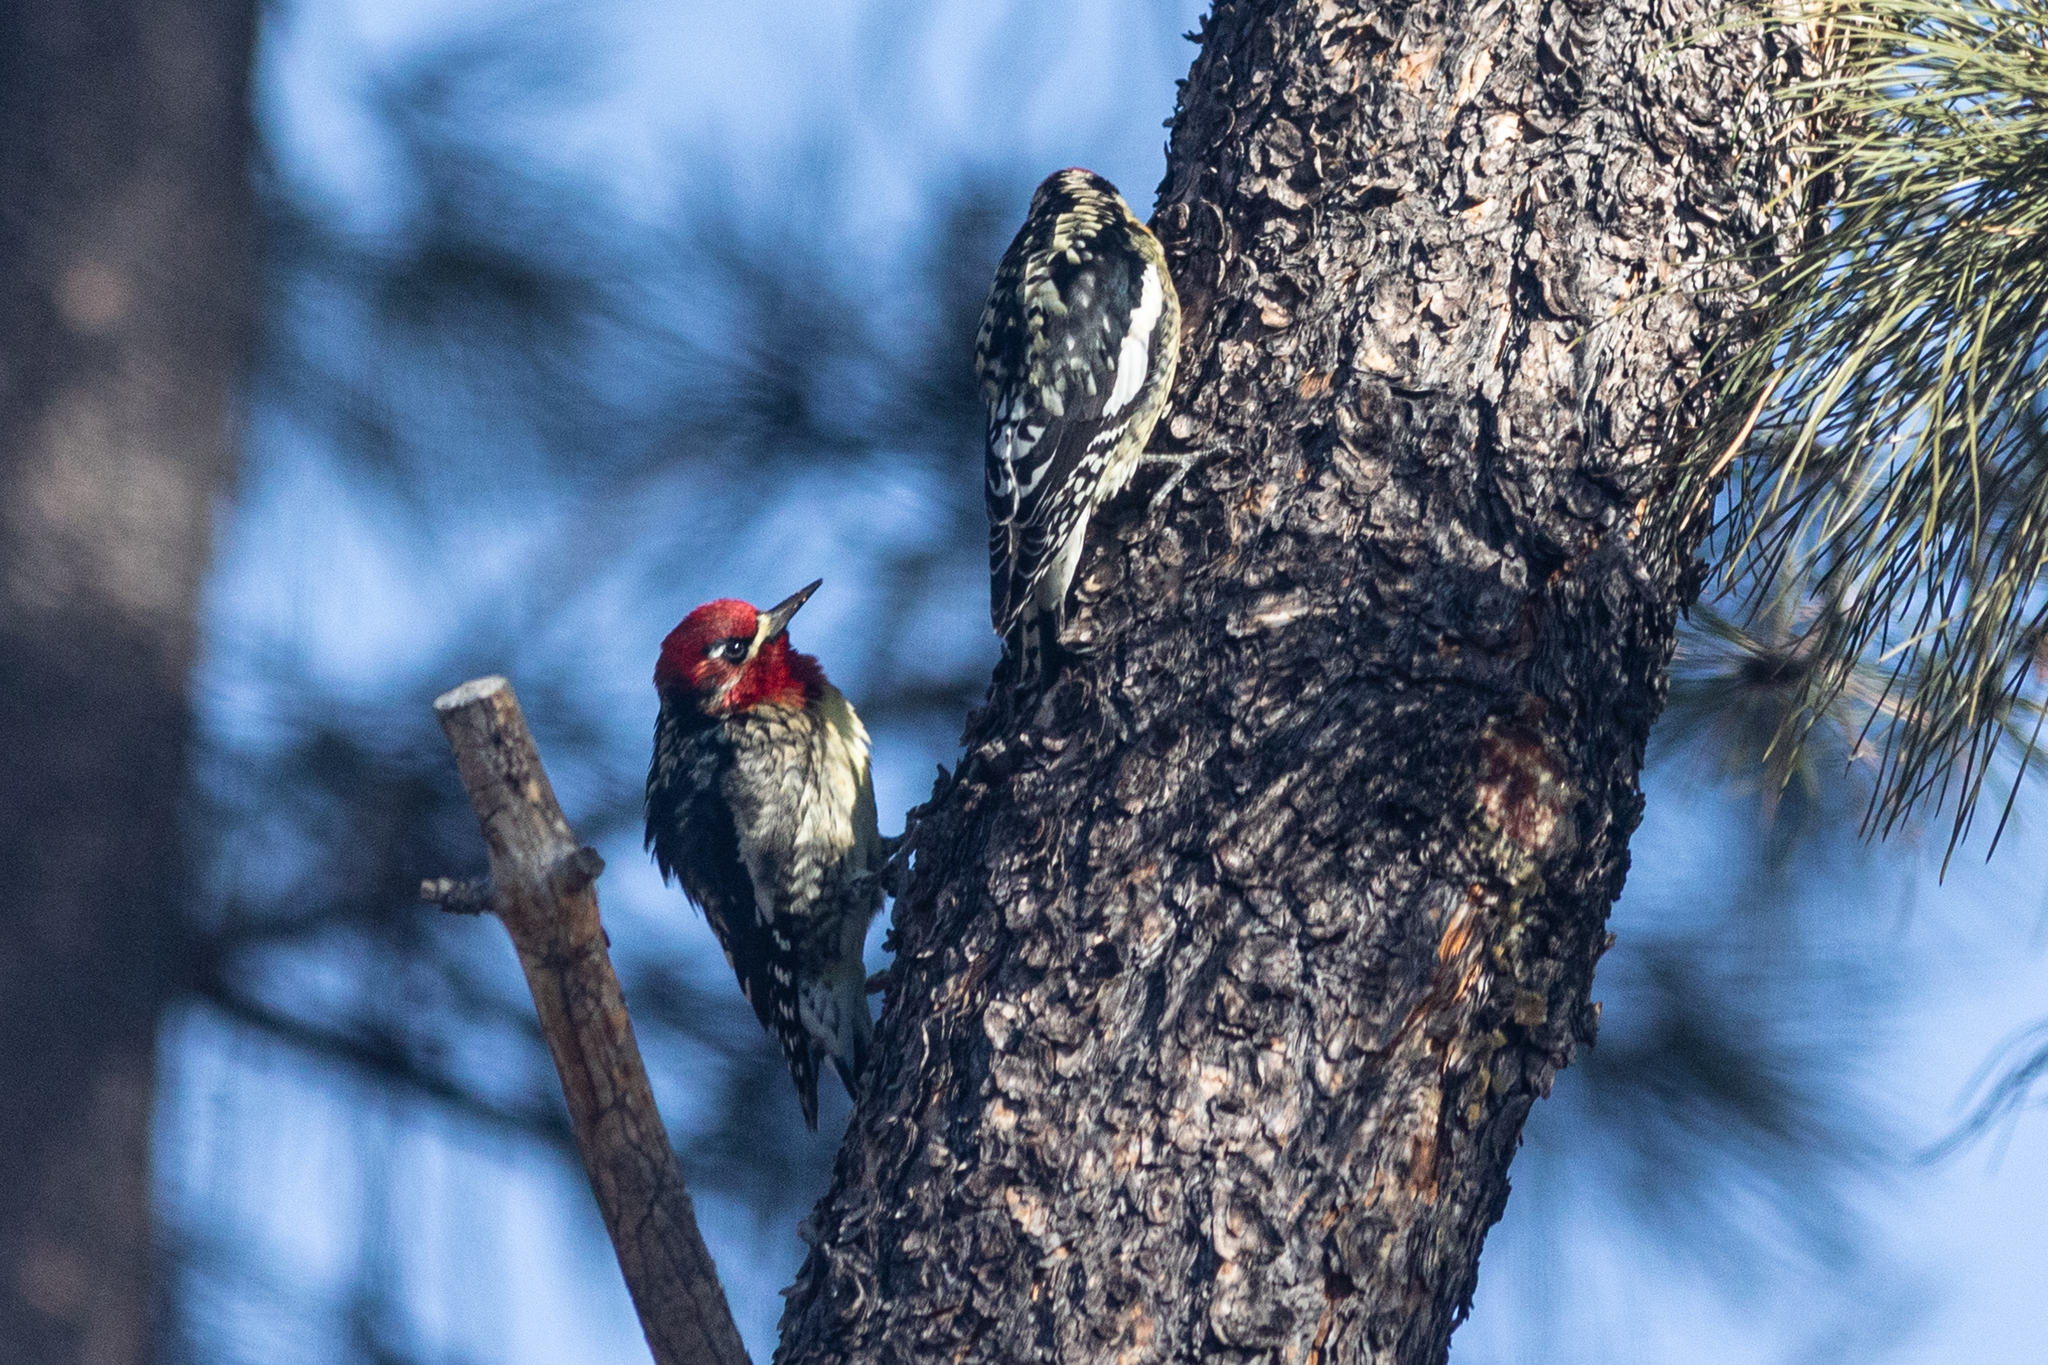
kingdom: Animalia
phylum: Chordata
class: Aves
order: Piciformes
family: Picidae
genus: Sphyrapicus
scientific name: Sphyrapicus ruber
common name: Red-breasted sapsucker
